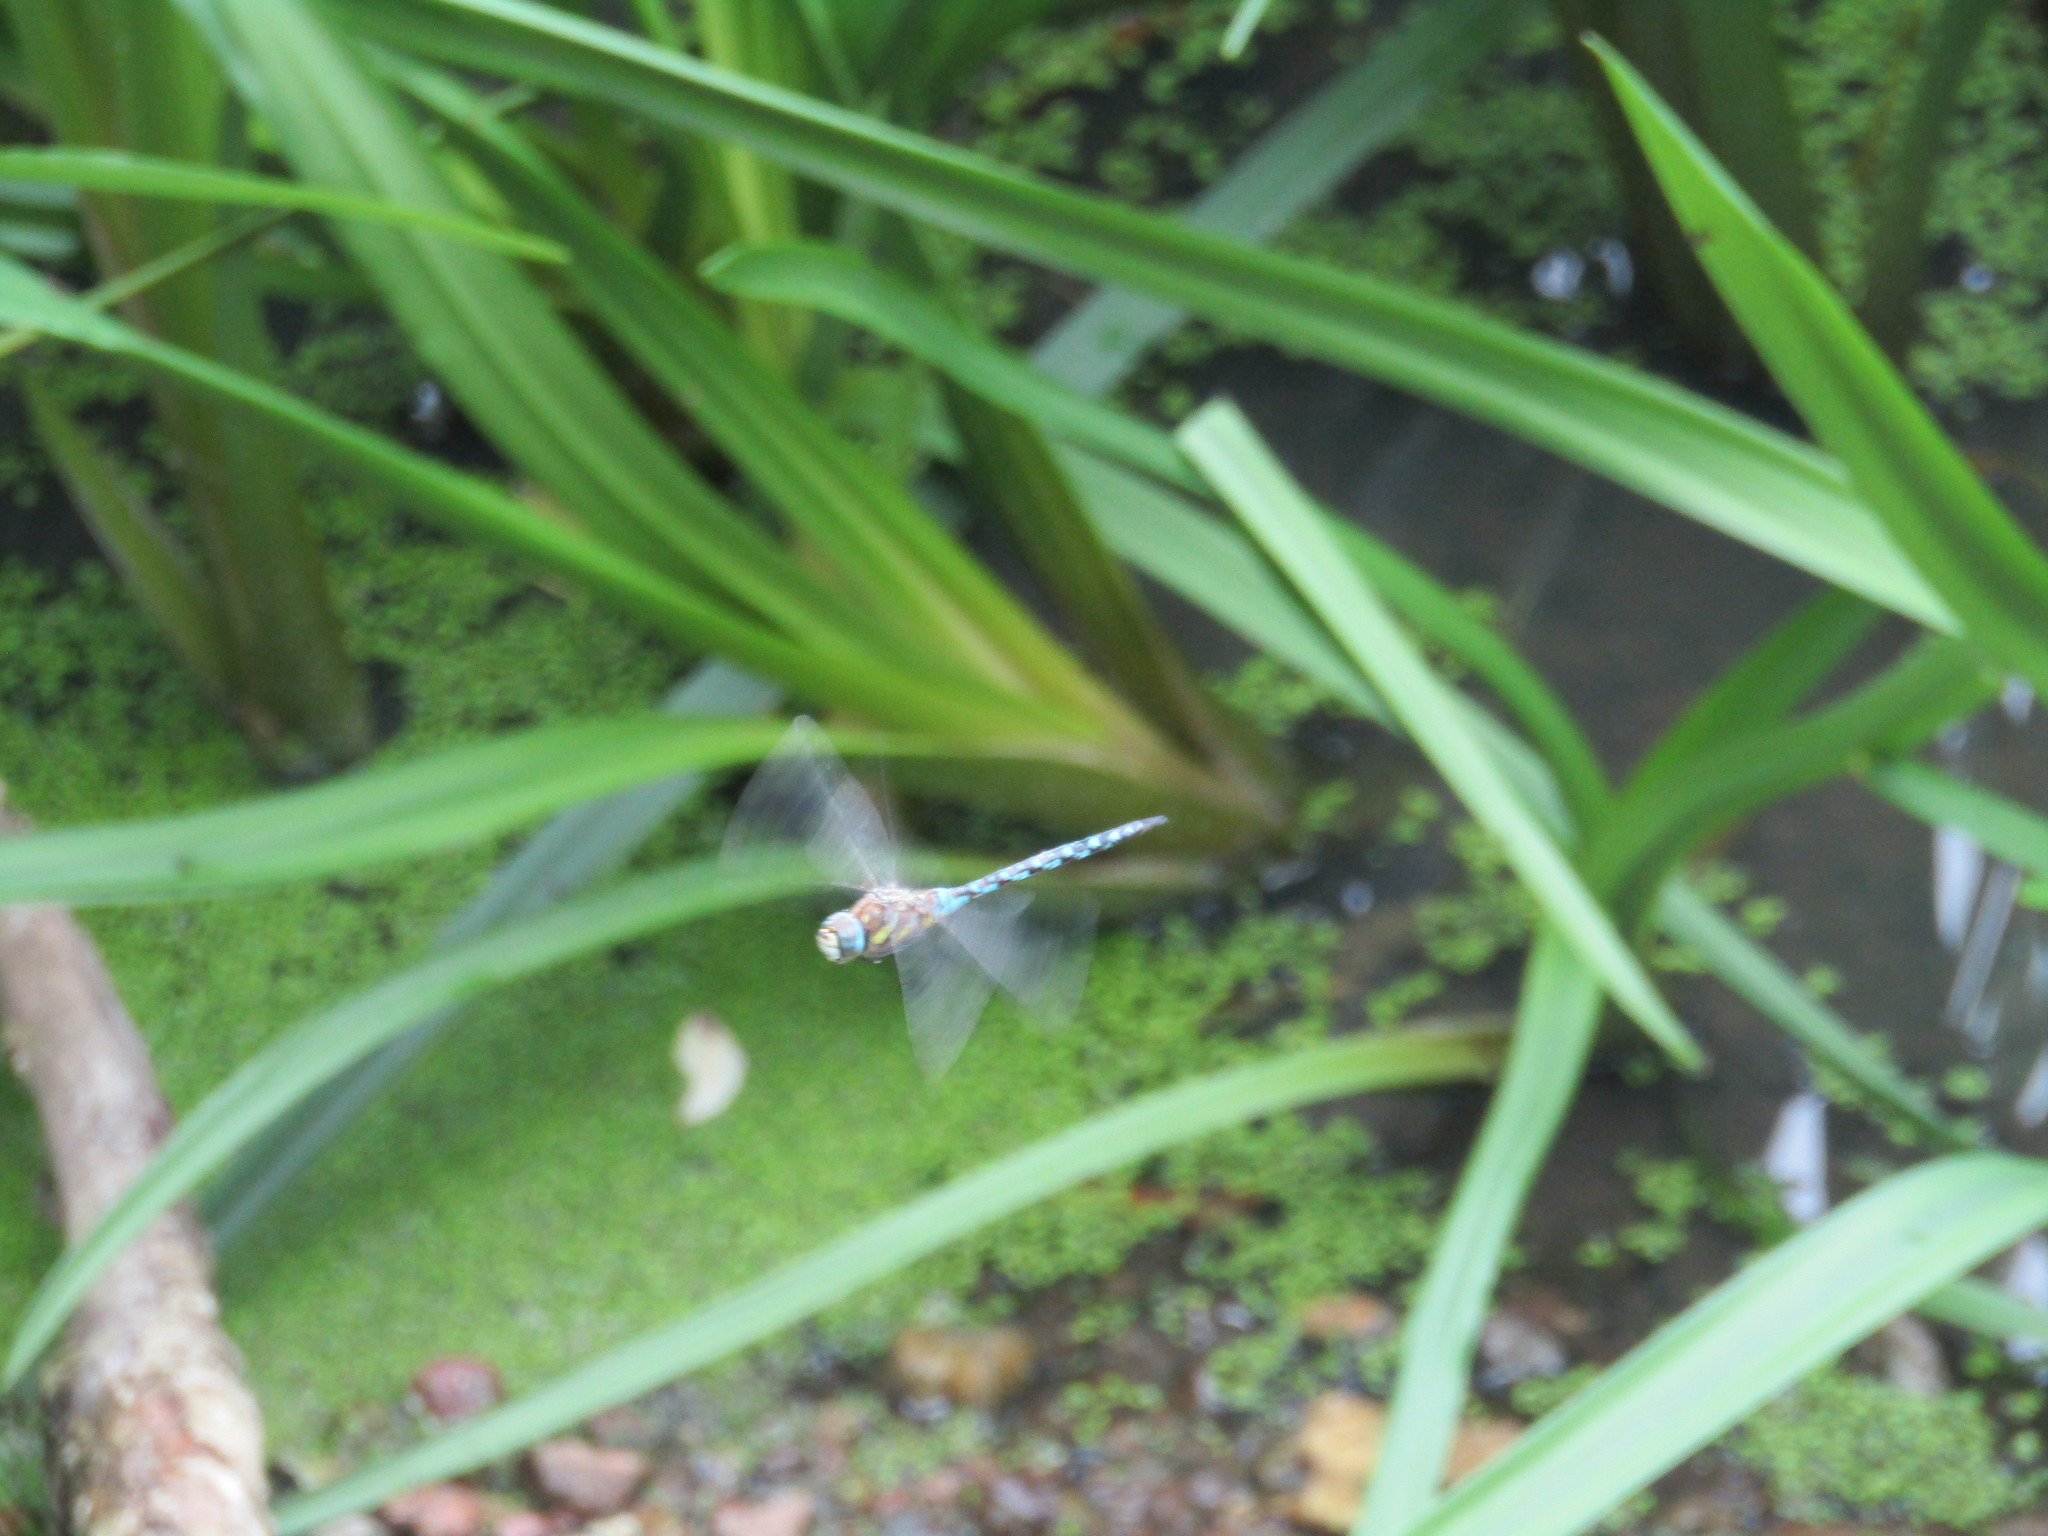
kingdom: Animalia
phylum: Arthropoda
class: Insecta
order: Odonata
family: Aeshnidae
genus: Aeshna
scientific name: Aeshna mixta
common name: Migrant hawker
